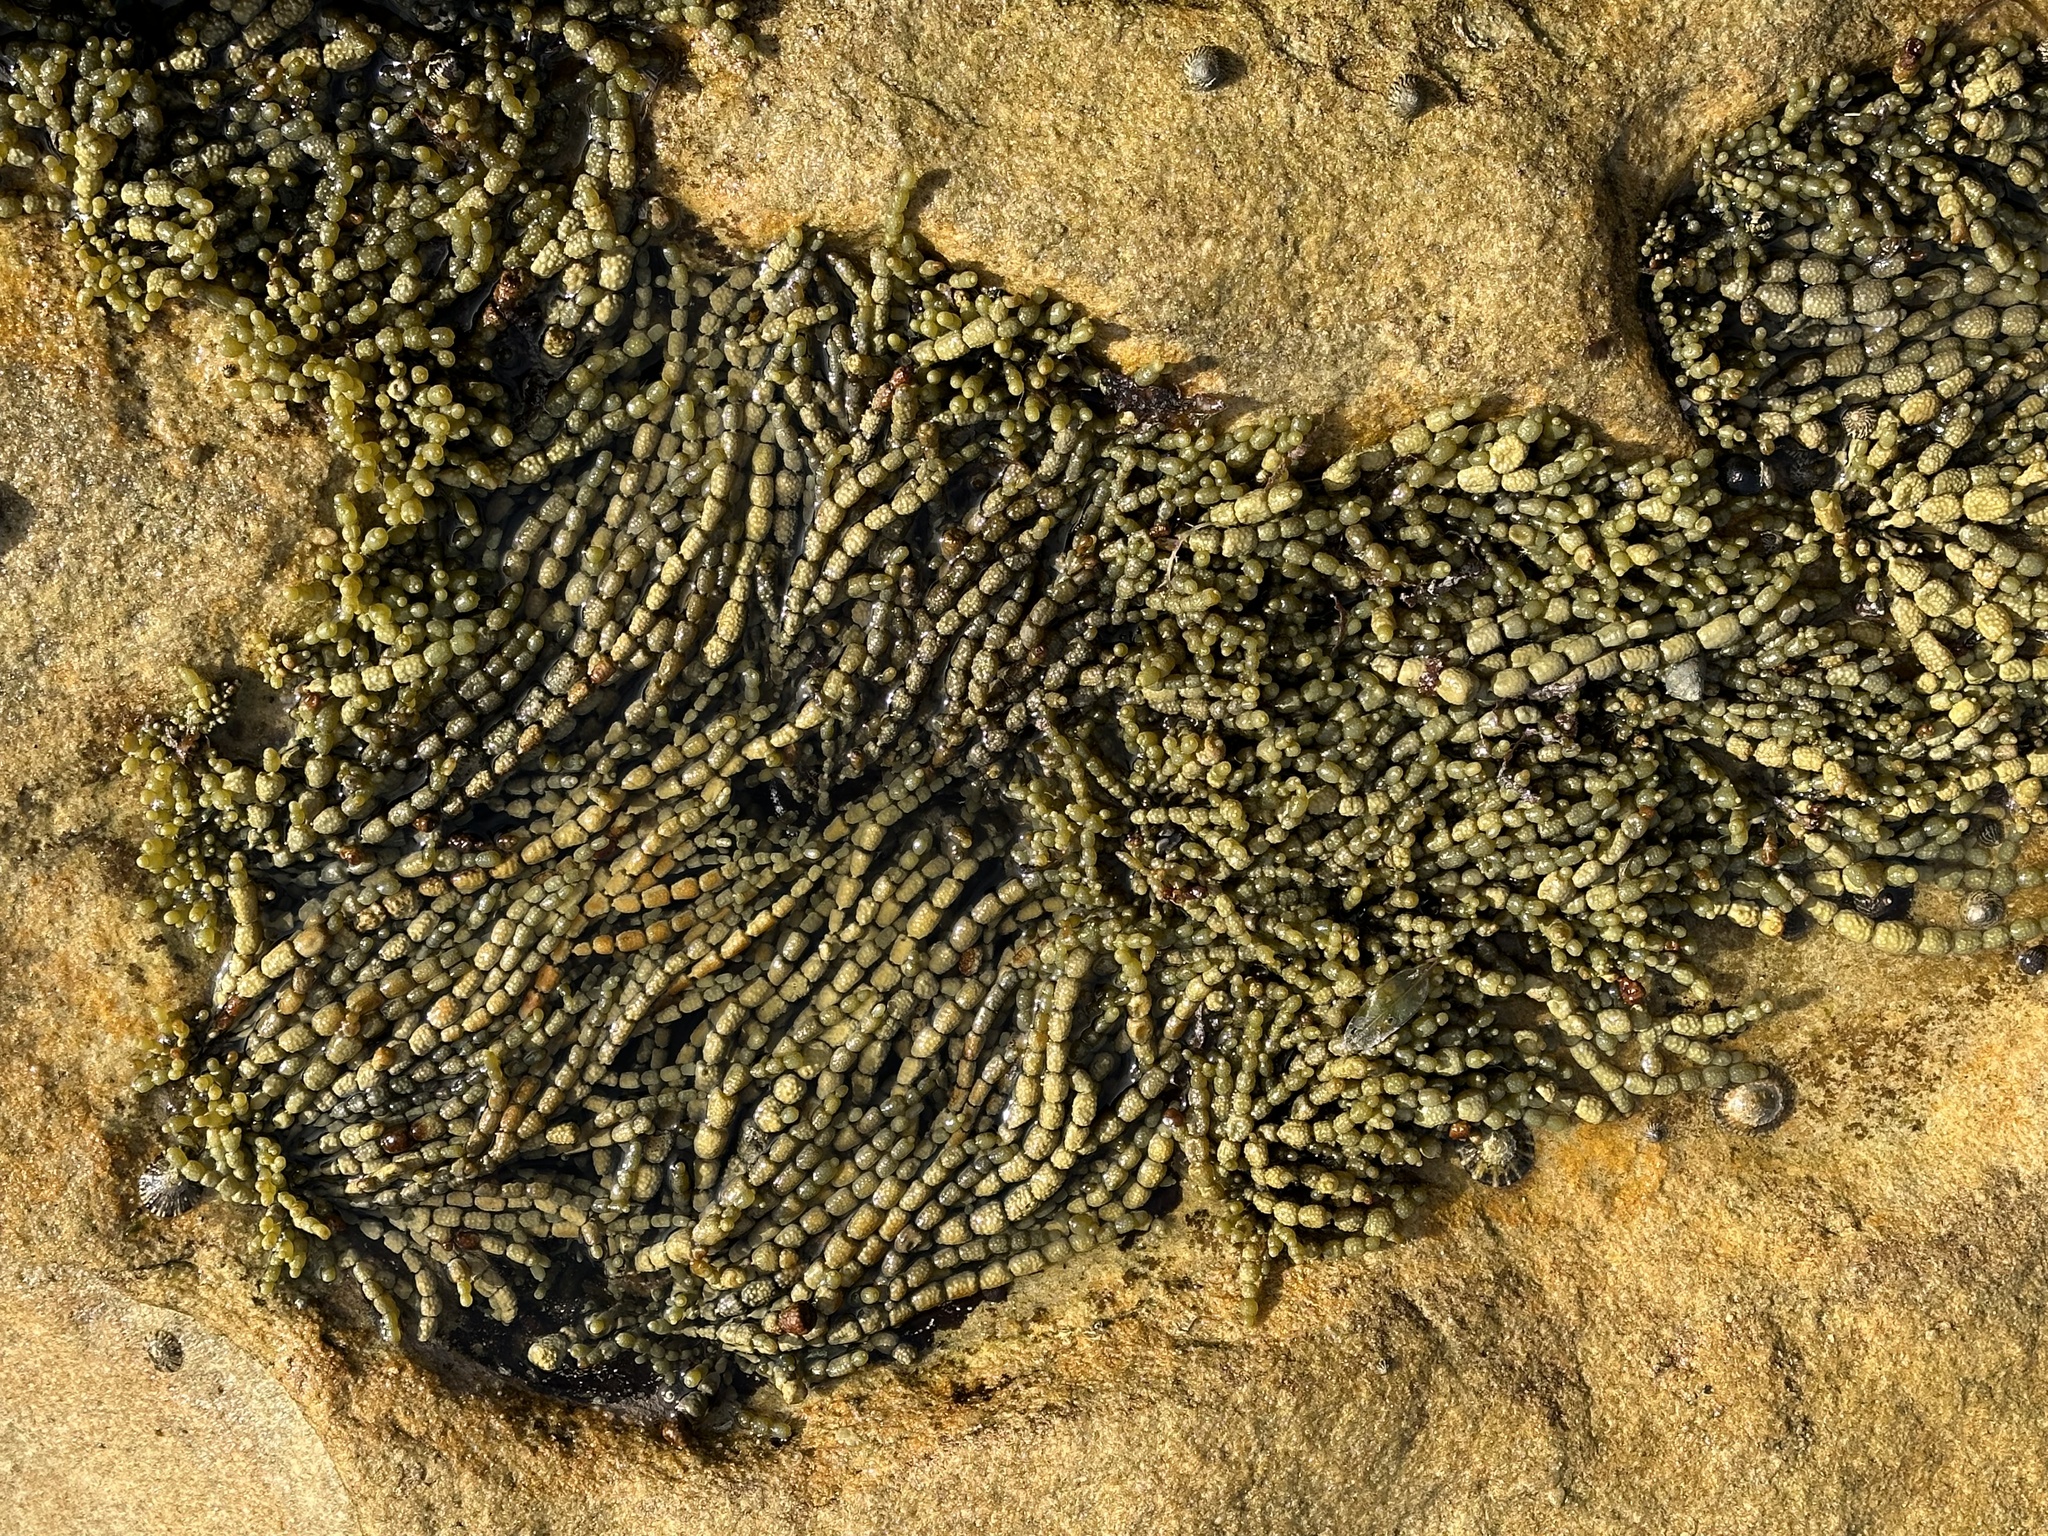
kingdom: Chromista
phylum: Ochrophyta
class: Phaeophyceae
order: Fucales
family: Hormosiraceae
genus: Hormosira
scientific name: Hormosira banksii
